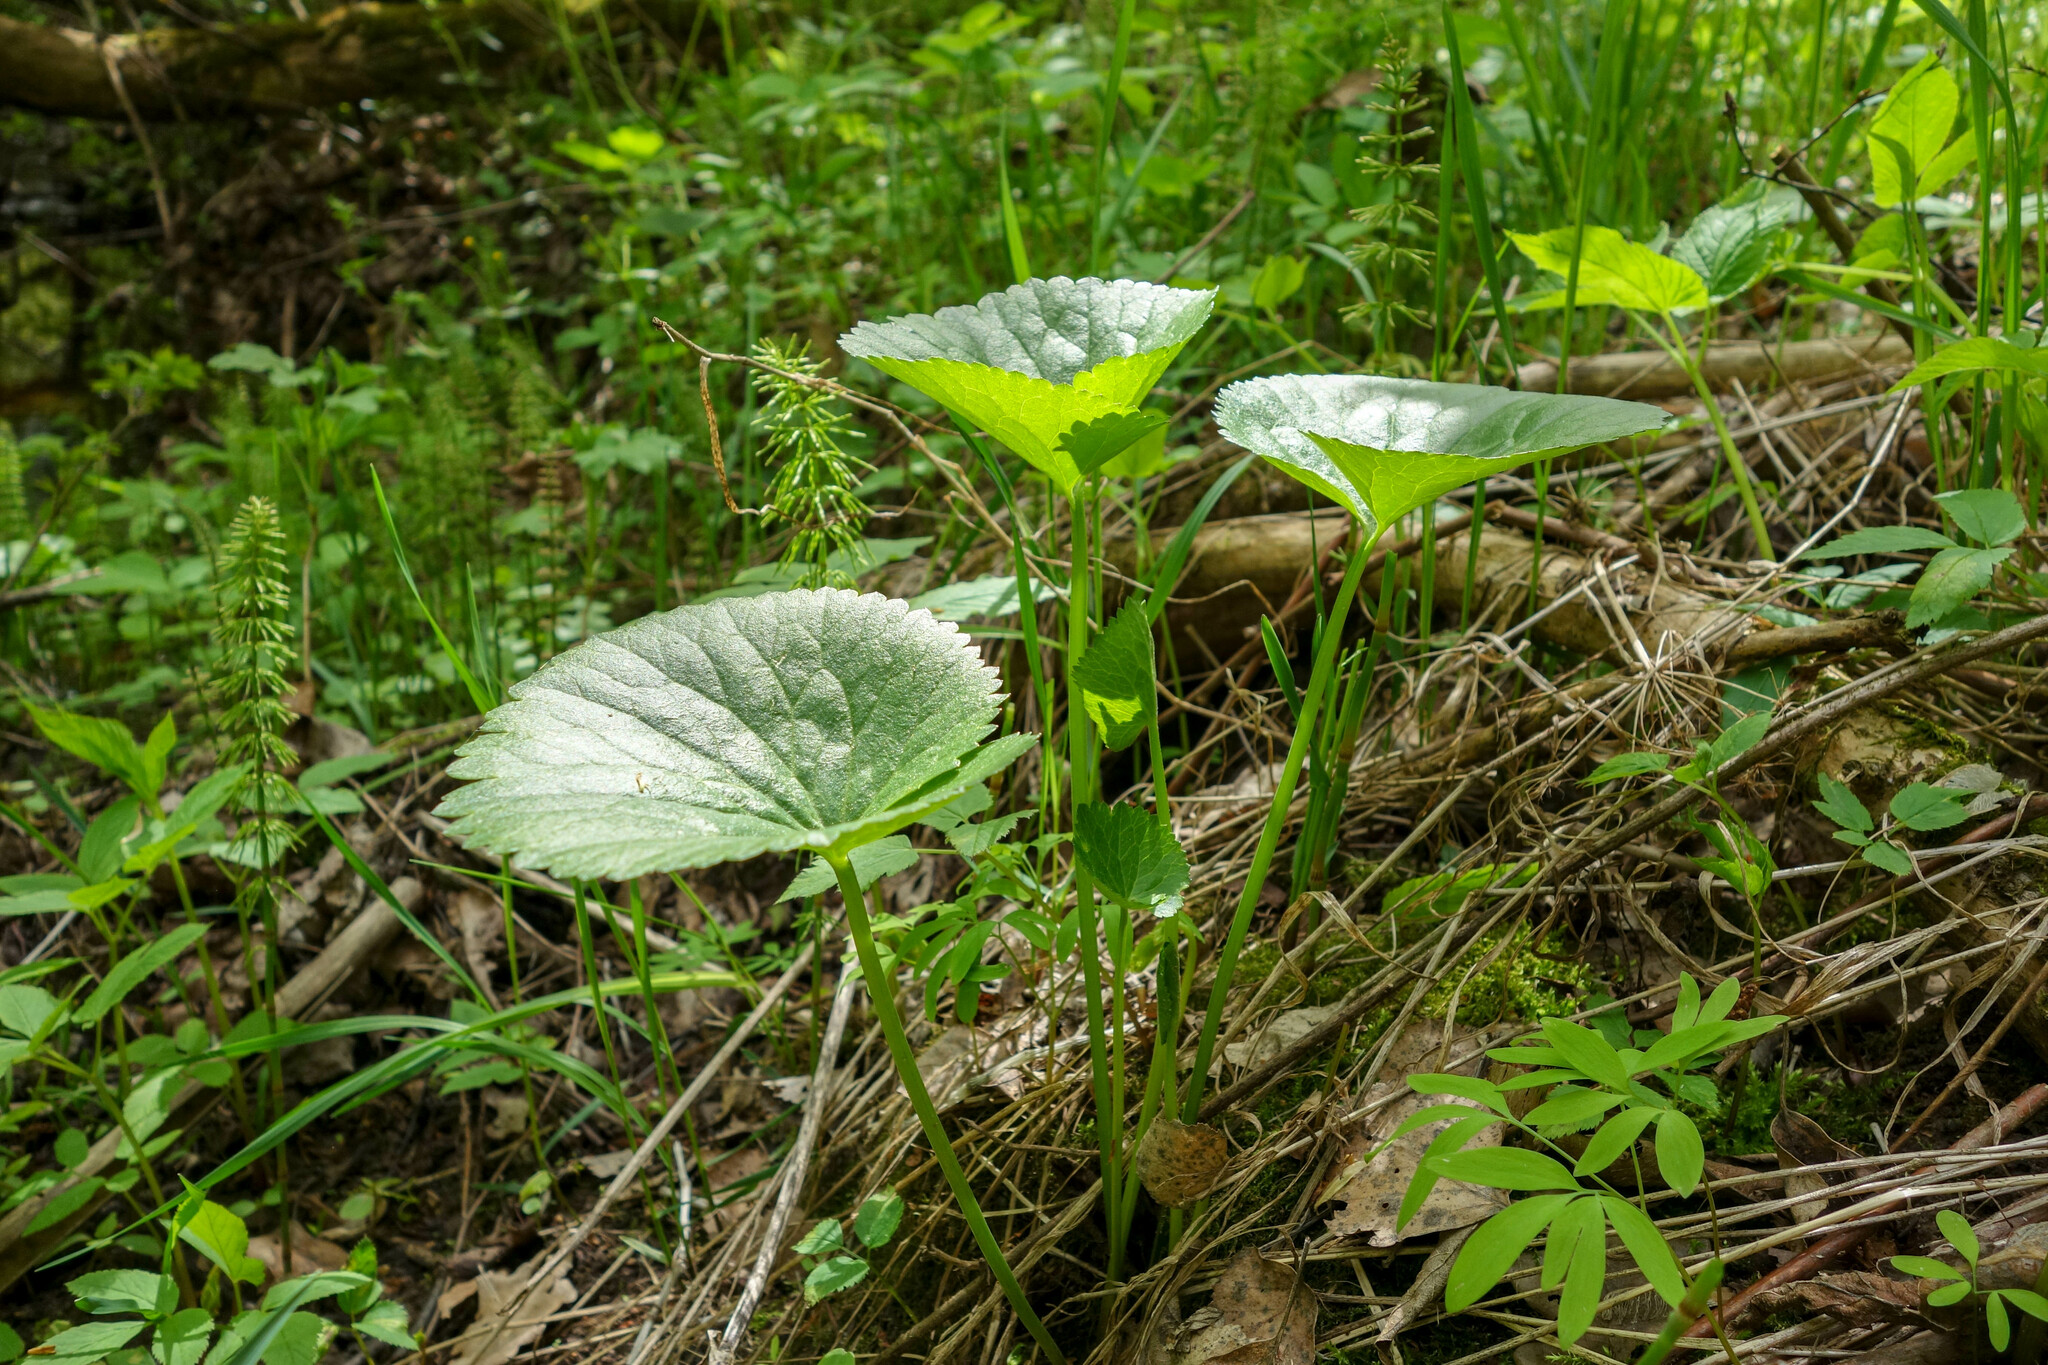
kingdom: Plantae
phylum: Tracheophyta
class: Magnoliopsida
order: Ranunculales
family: Ranunculaceae
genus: Ranunculus
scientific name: Ranunculus cassubicus
